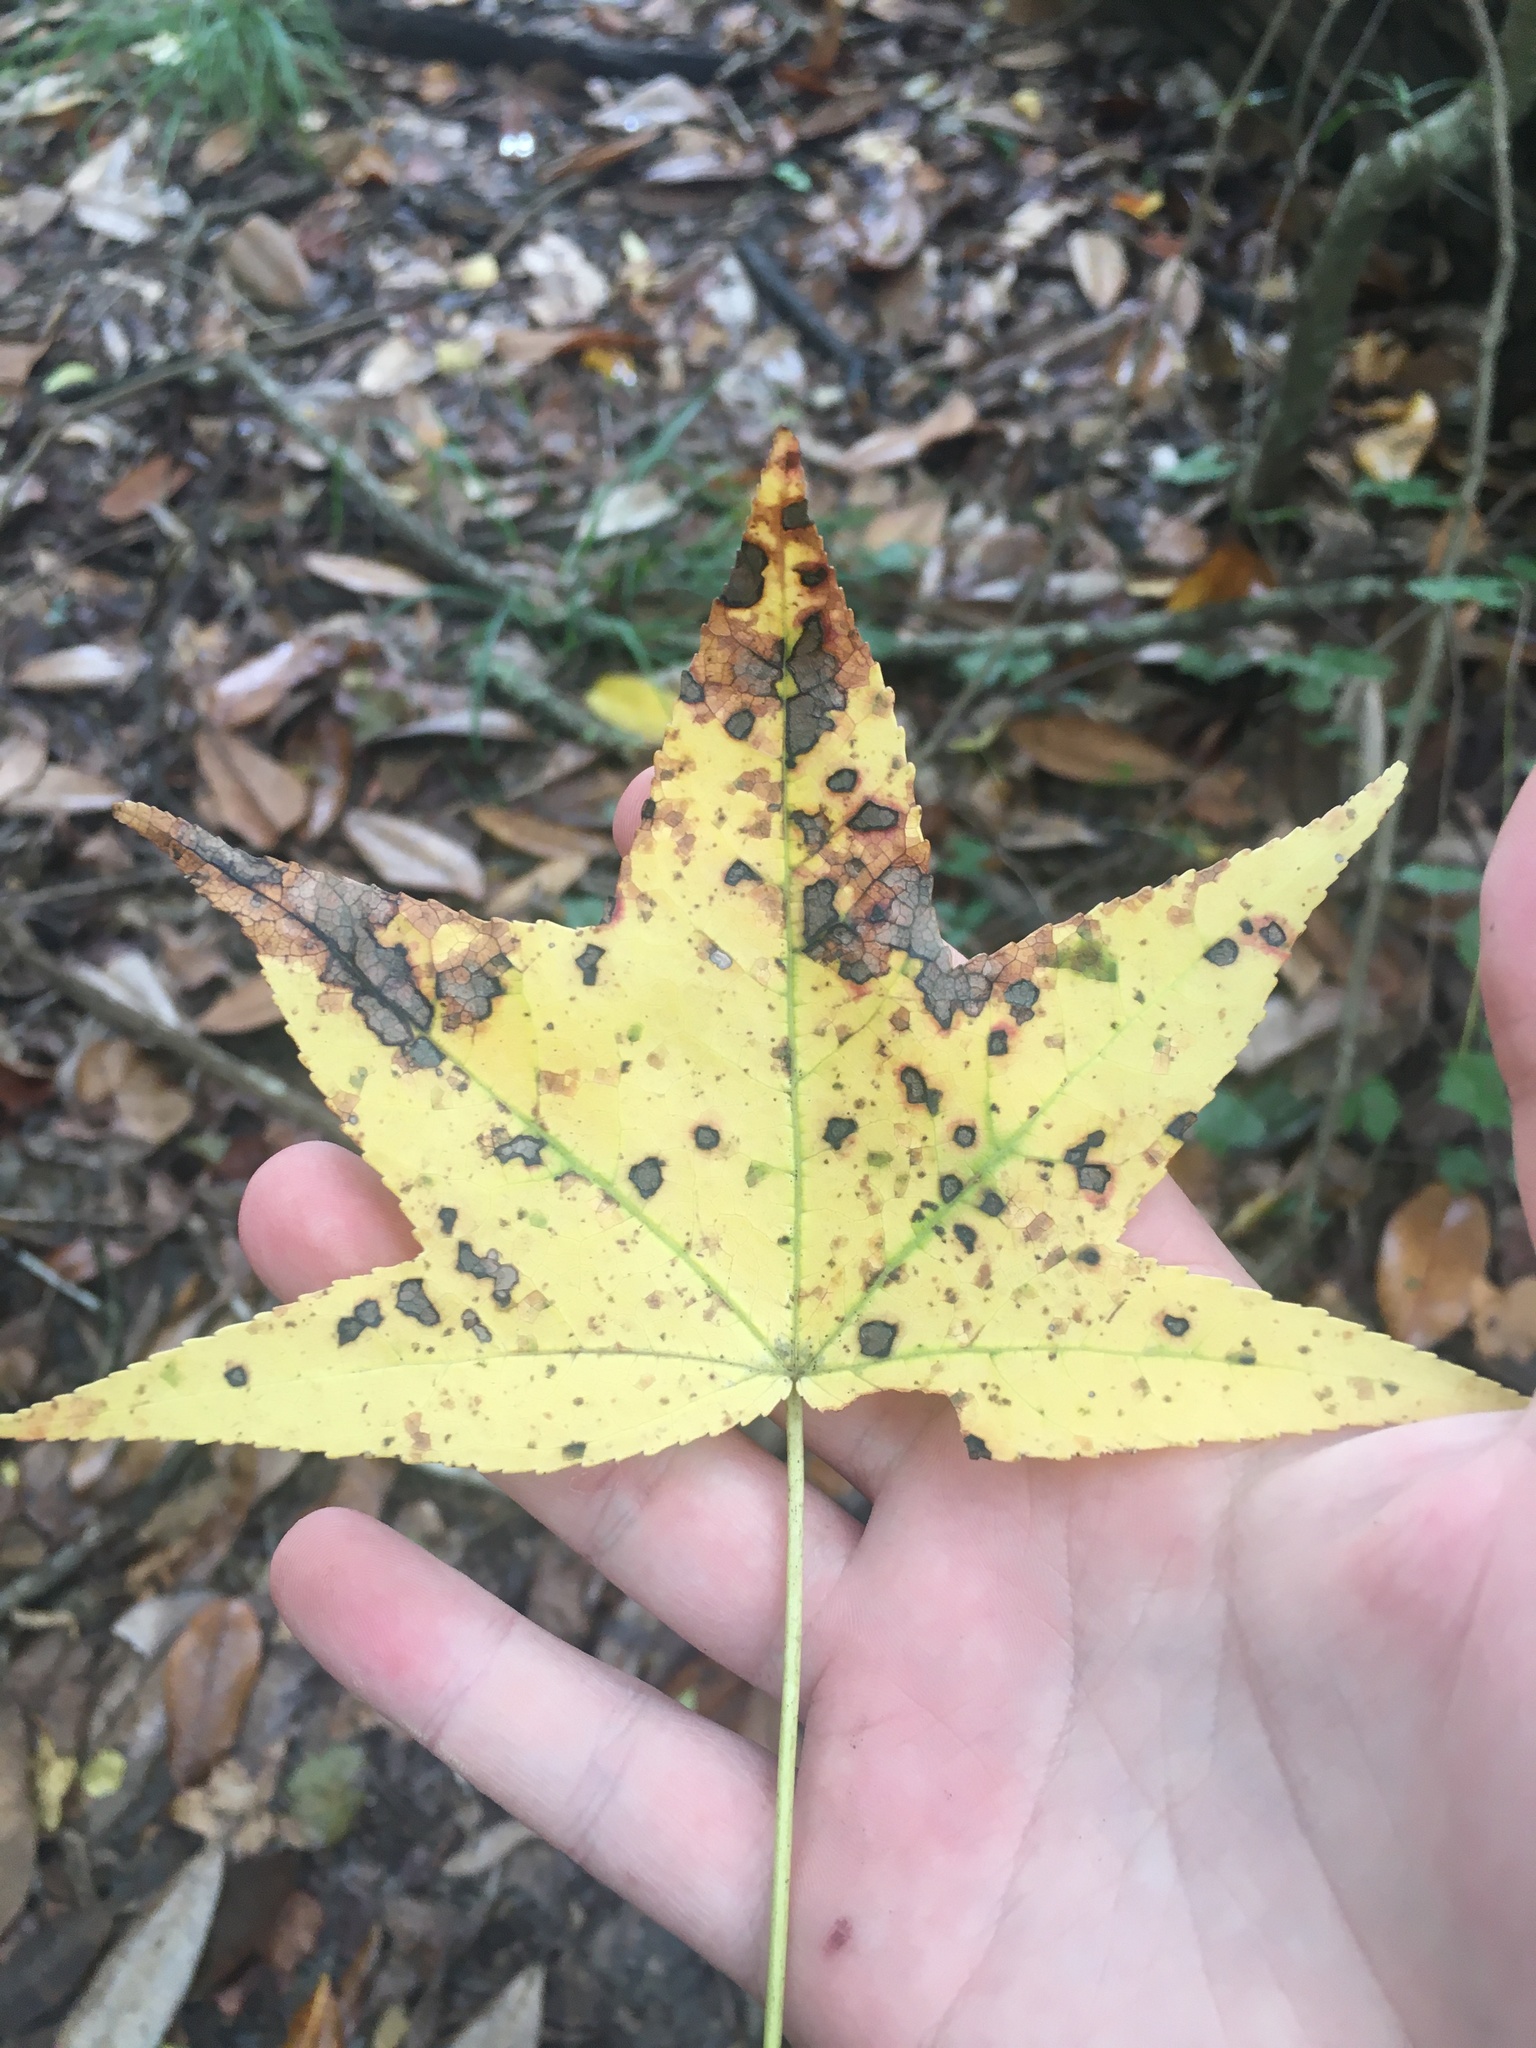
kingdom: Plantae
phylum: Tracheophyta
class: Magnoliopsida
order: Saxifragales
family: Altingiaceae
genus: Liquidambar
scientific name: Liquidambar styraciflua
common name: Sweet gum
